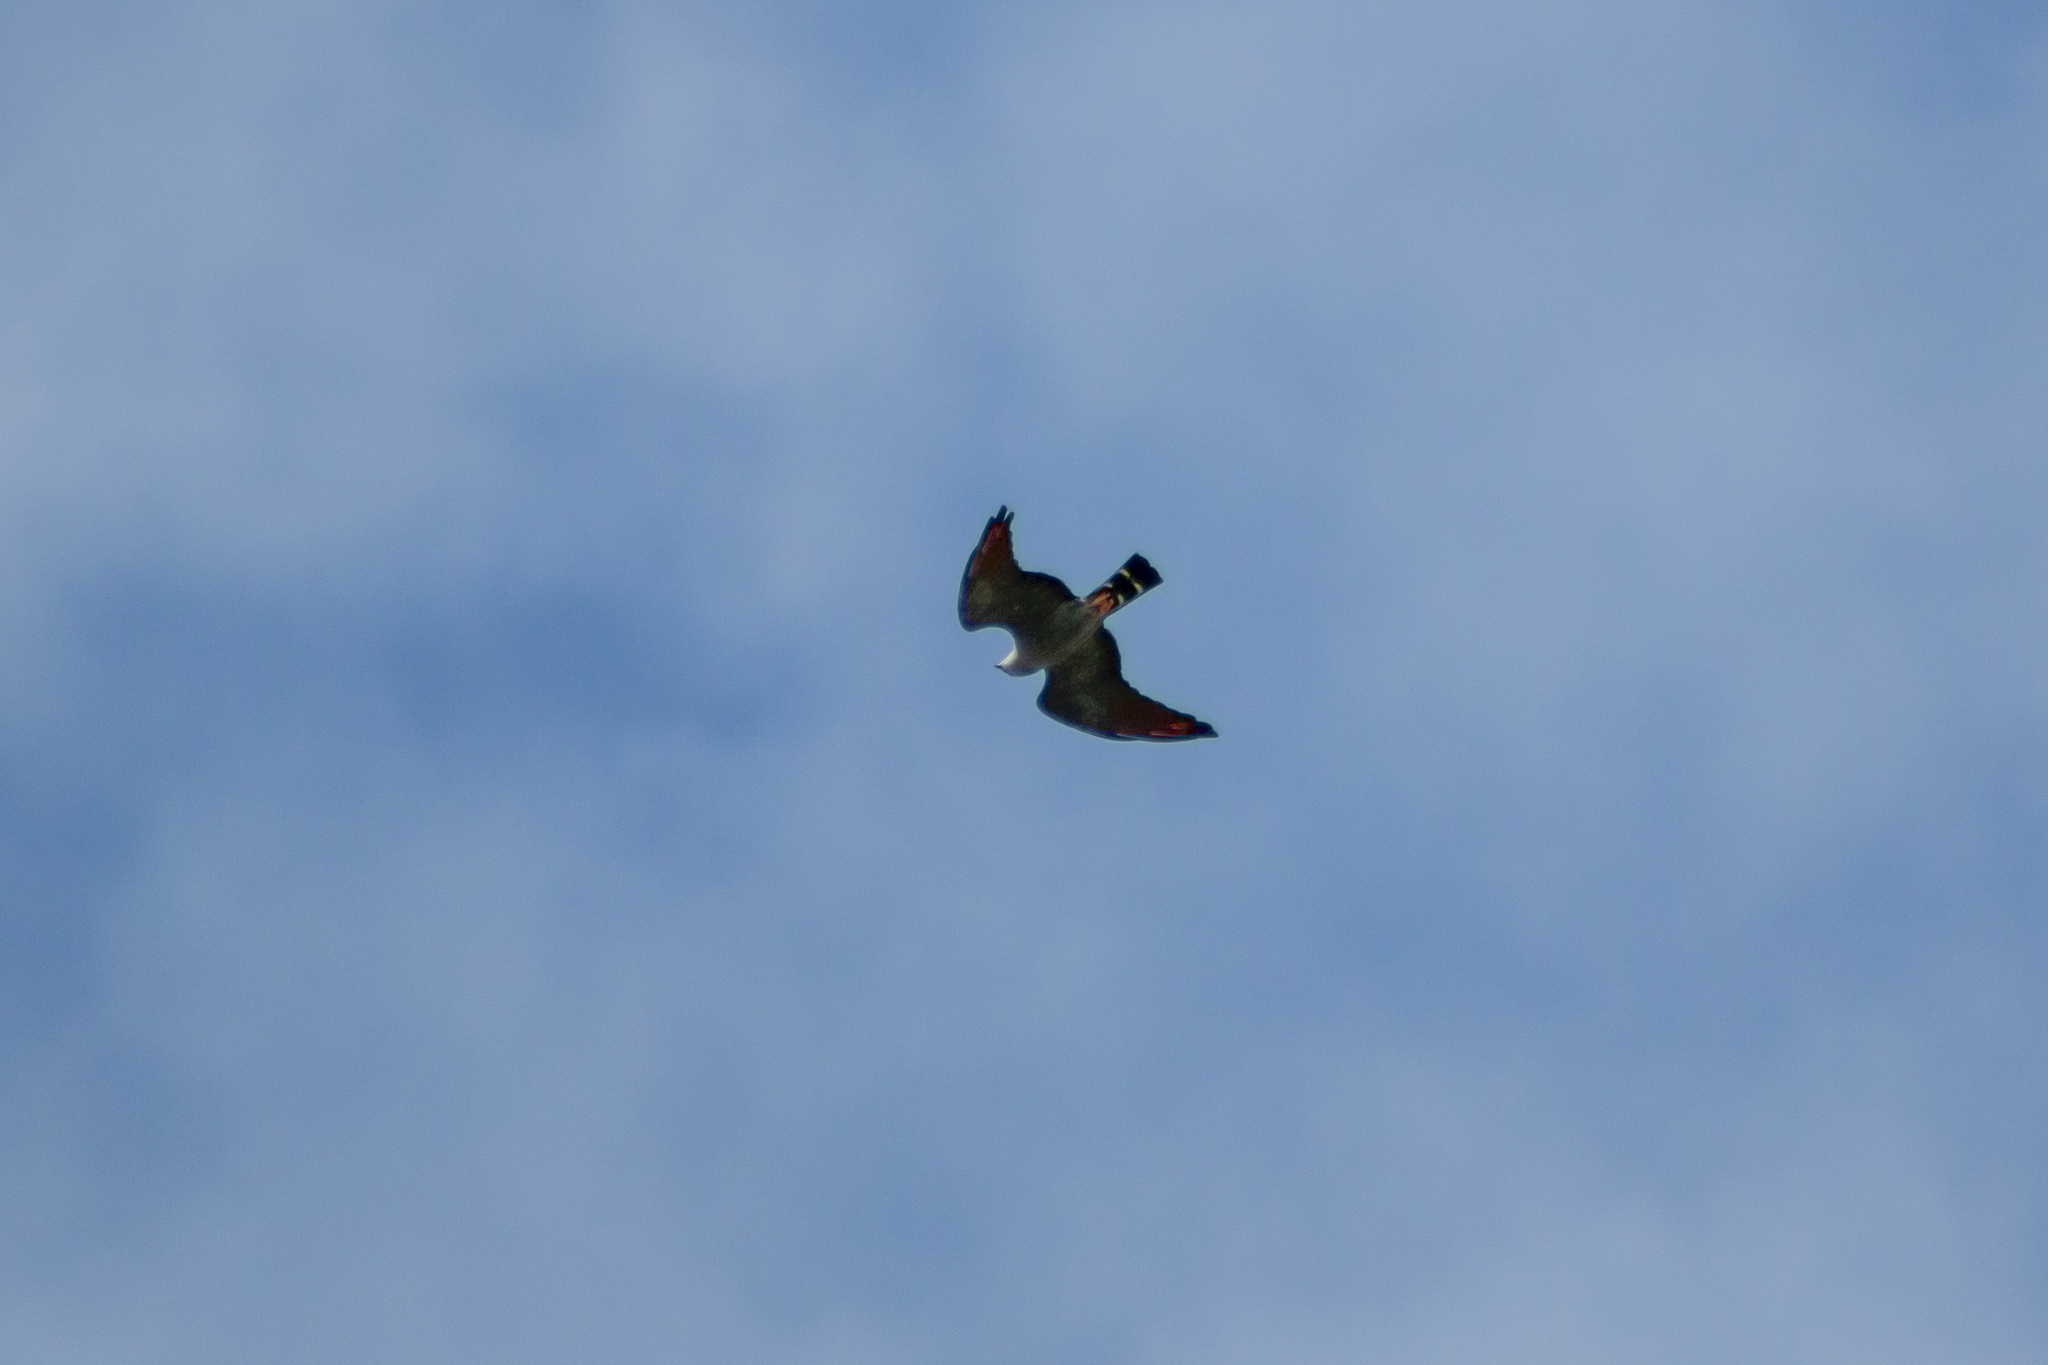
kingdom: Animalia
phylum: Chordata
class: Aves
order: Accipitriformes
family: Accipitridae
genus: Ictinia
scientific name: Ictinia plumbea
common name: Plumbeous kite
